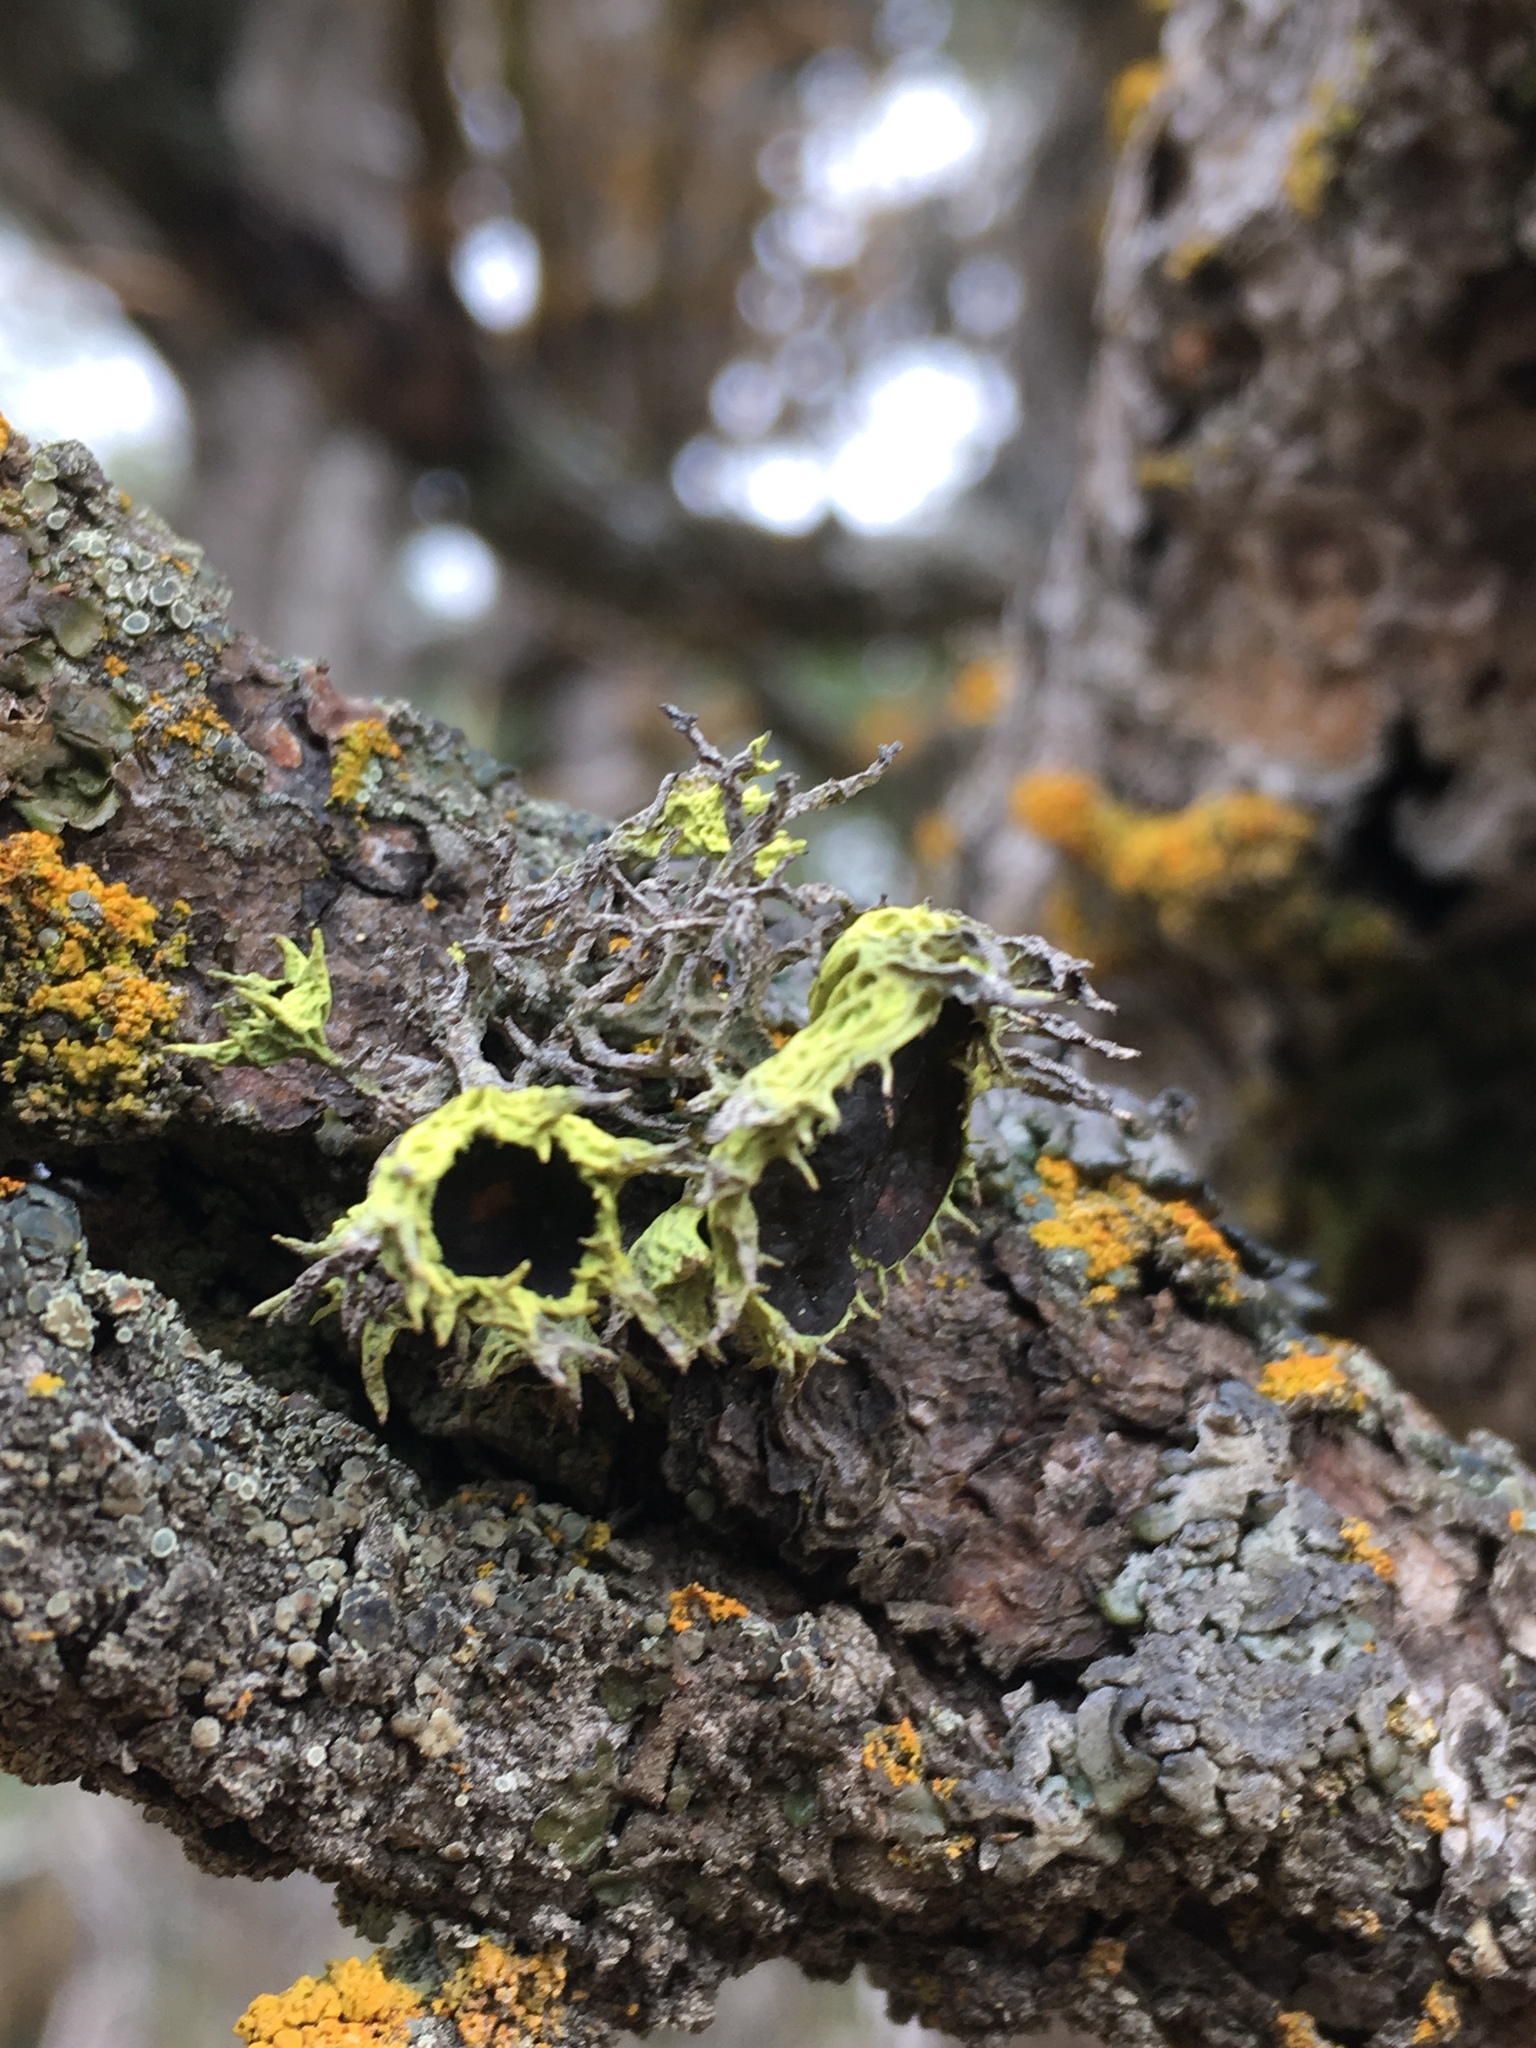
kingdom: Fungi
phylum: Ascomycota
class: Lecanoromycetes
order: Lecanorales
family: Parmeliaceae
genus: Letharia
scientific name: Letharia columbiana
